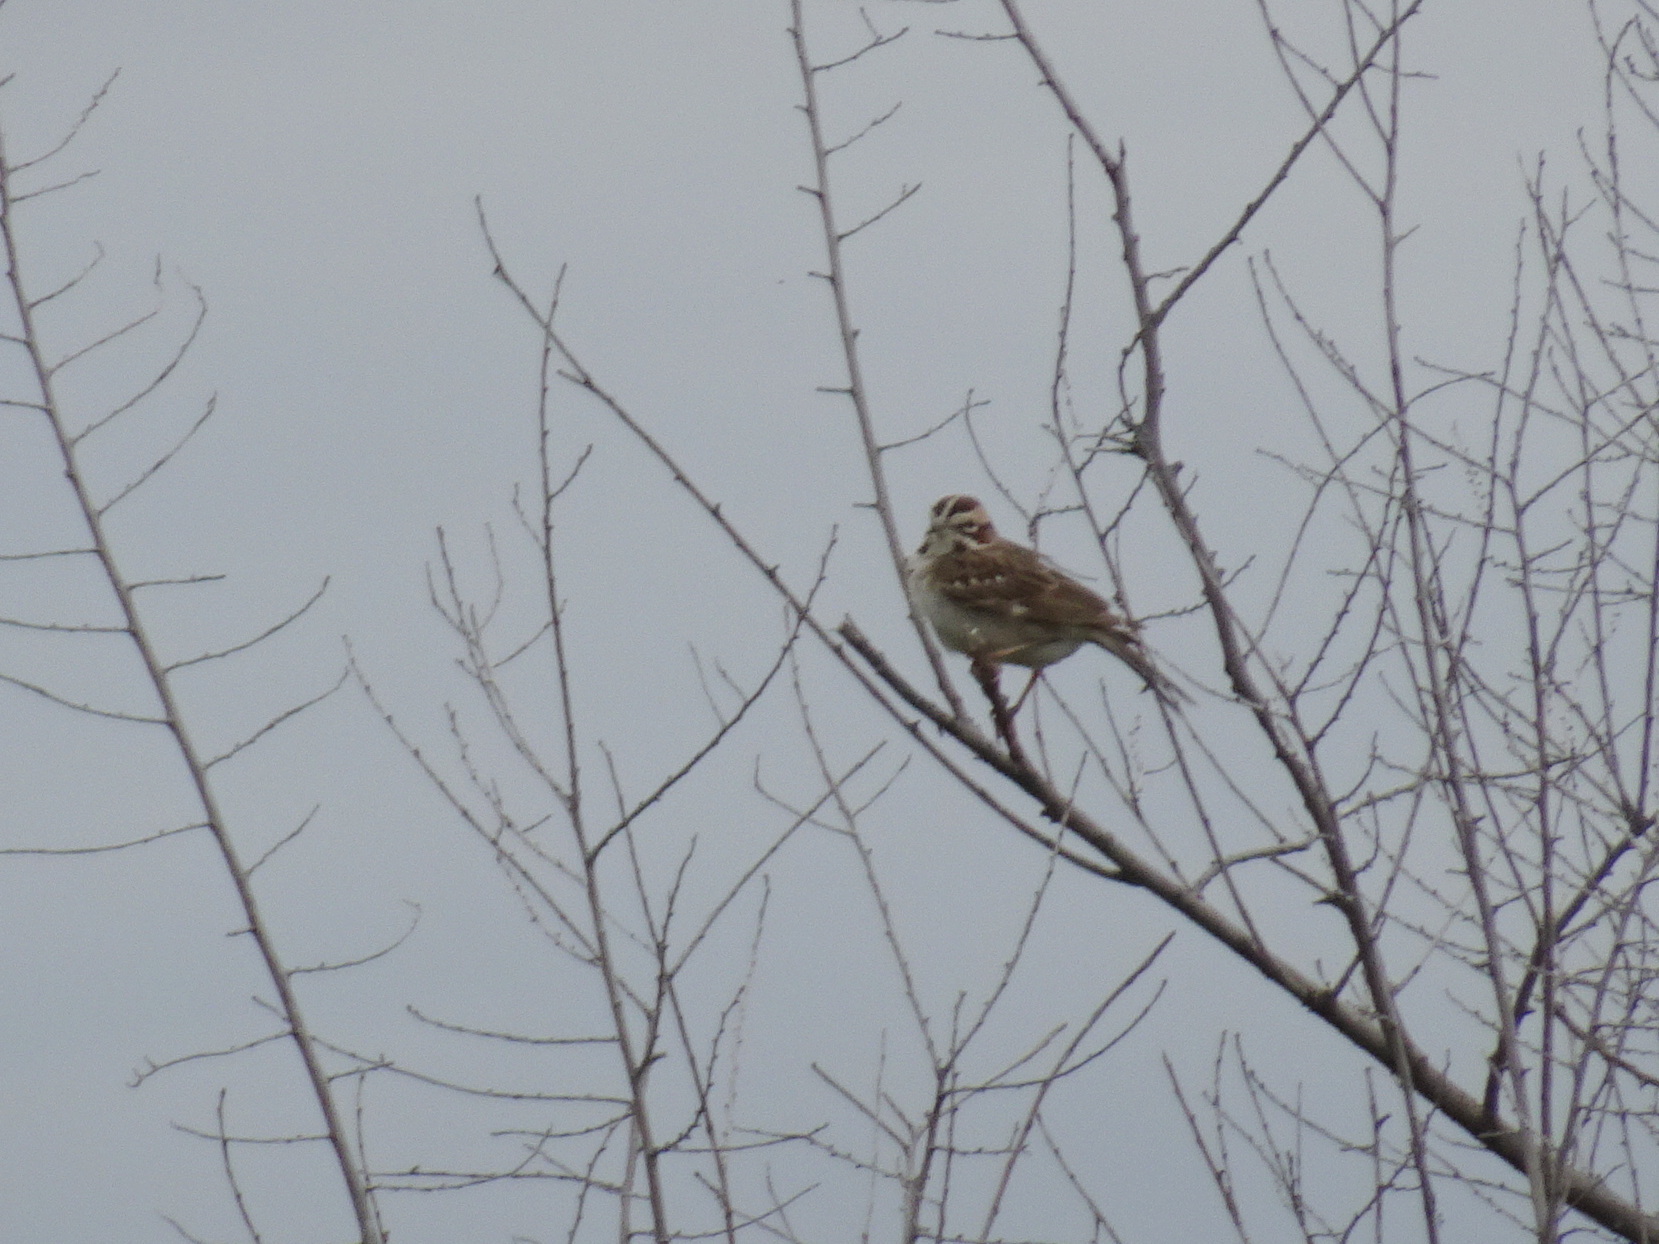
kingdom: Animalia
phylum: Chordata
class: Aves
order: Passeriformes
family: Passerellidae
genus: Chondestes
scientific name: Chondestes grammacus
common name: Lark sparrow
